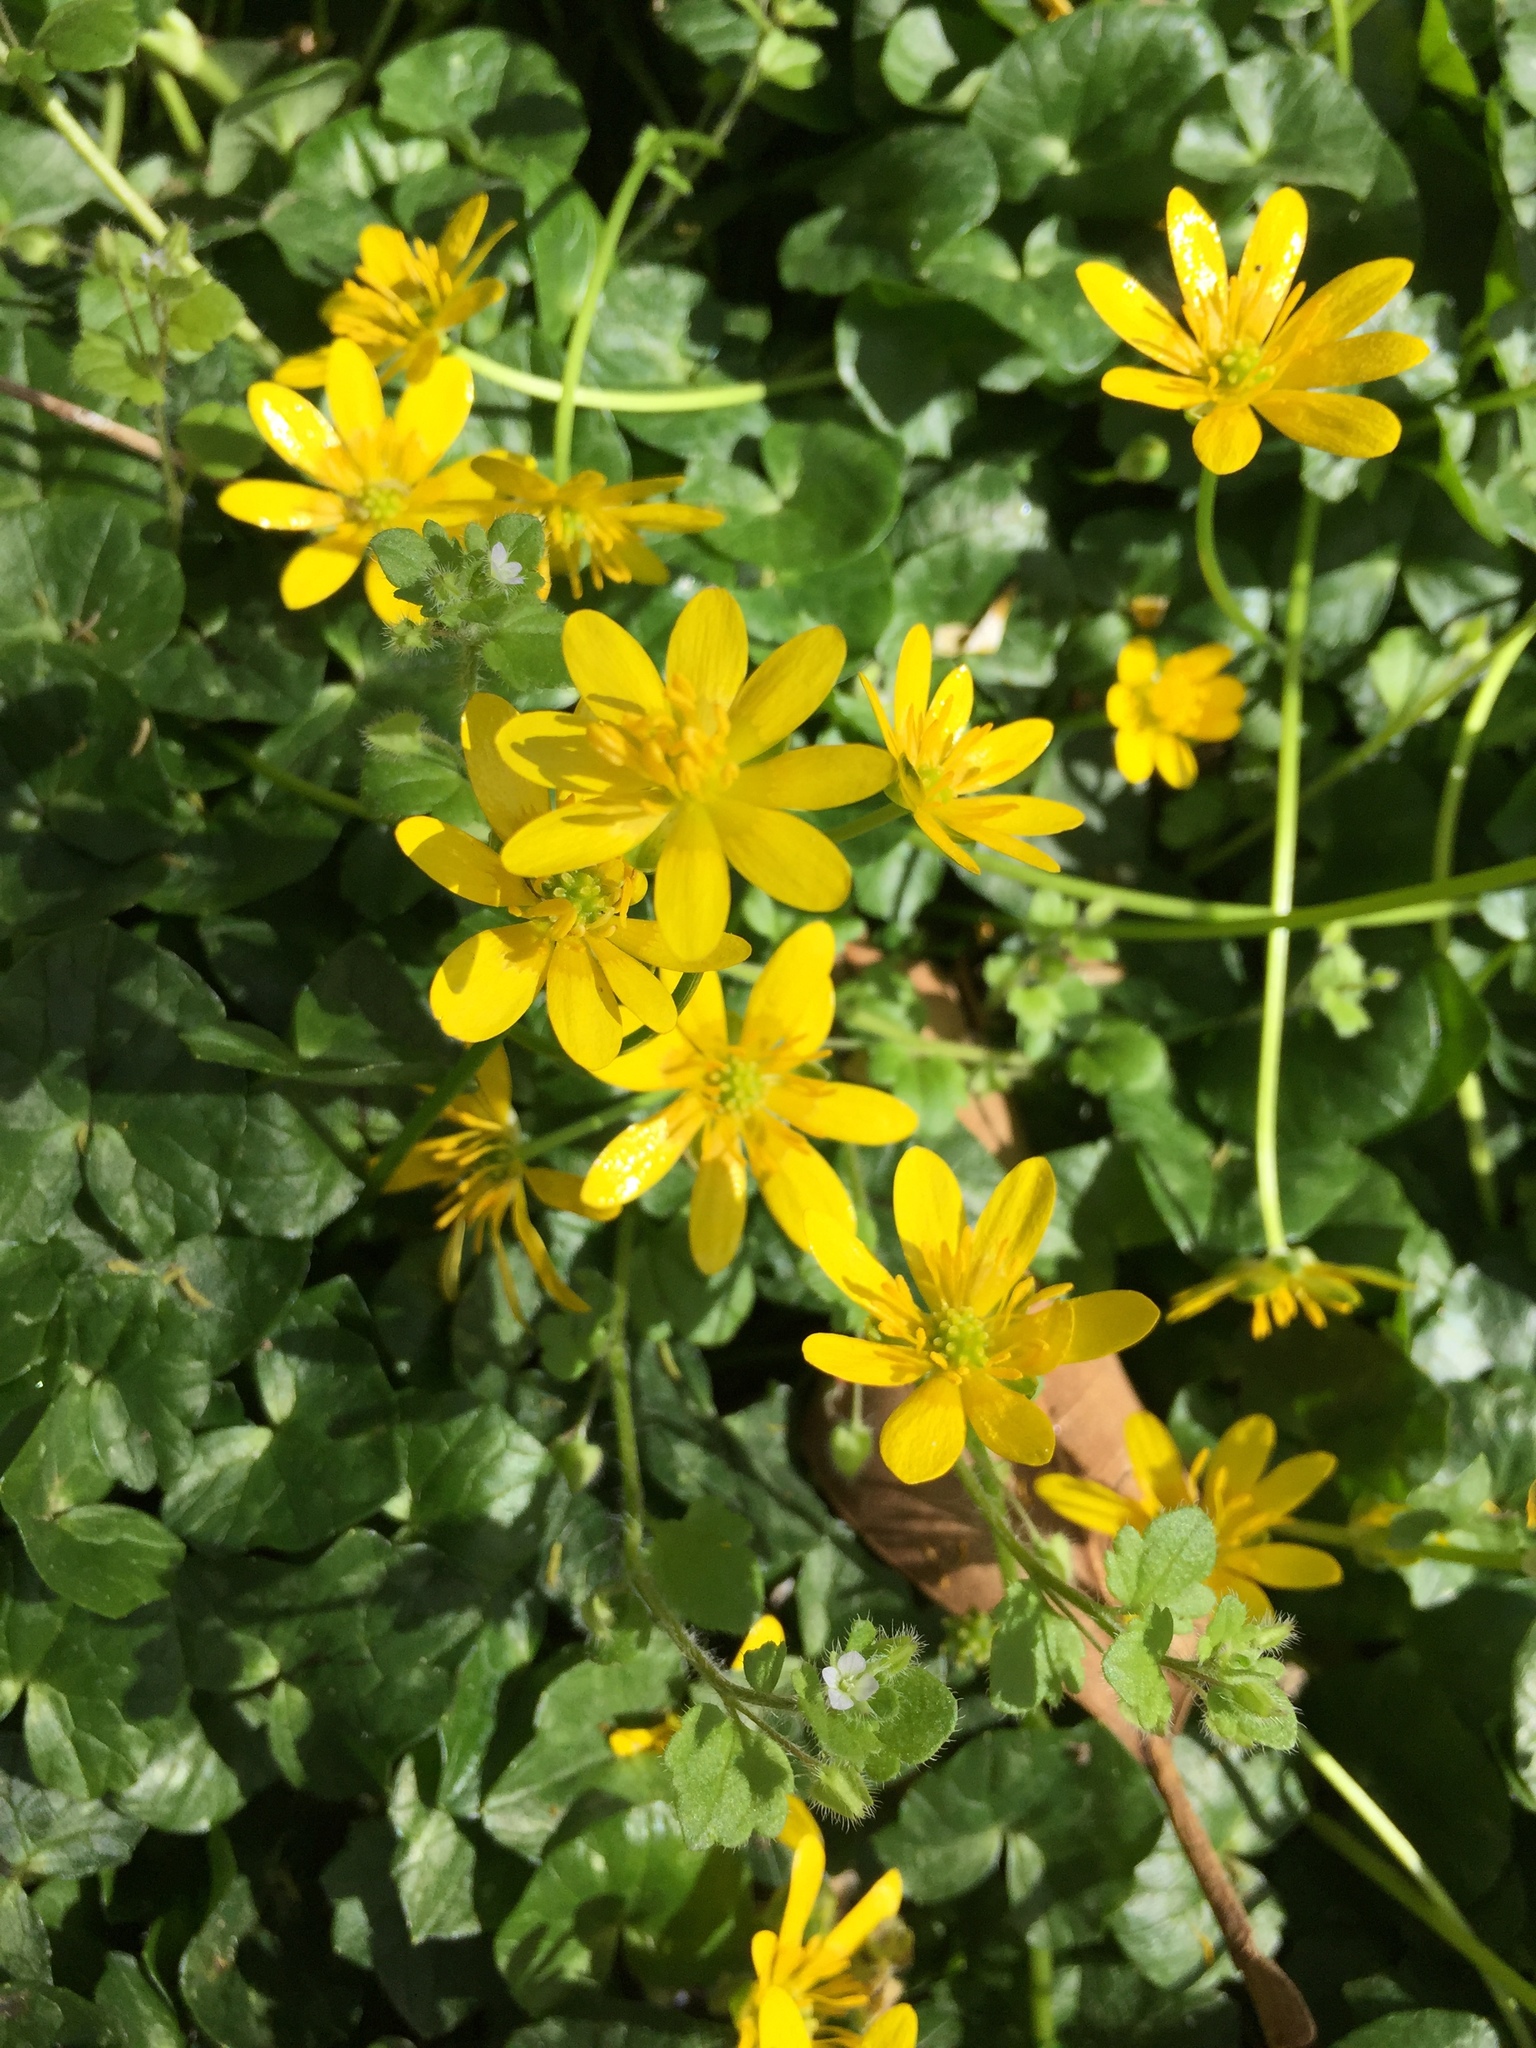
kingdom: Plantae
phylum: Tracheophyta
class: Magnoliopsida
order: Ranunculales
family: Ranunculaceae
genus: Ficaria
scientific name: Ficaria verna
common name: Lesser celandine
